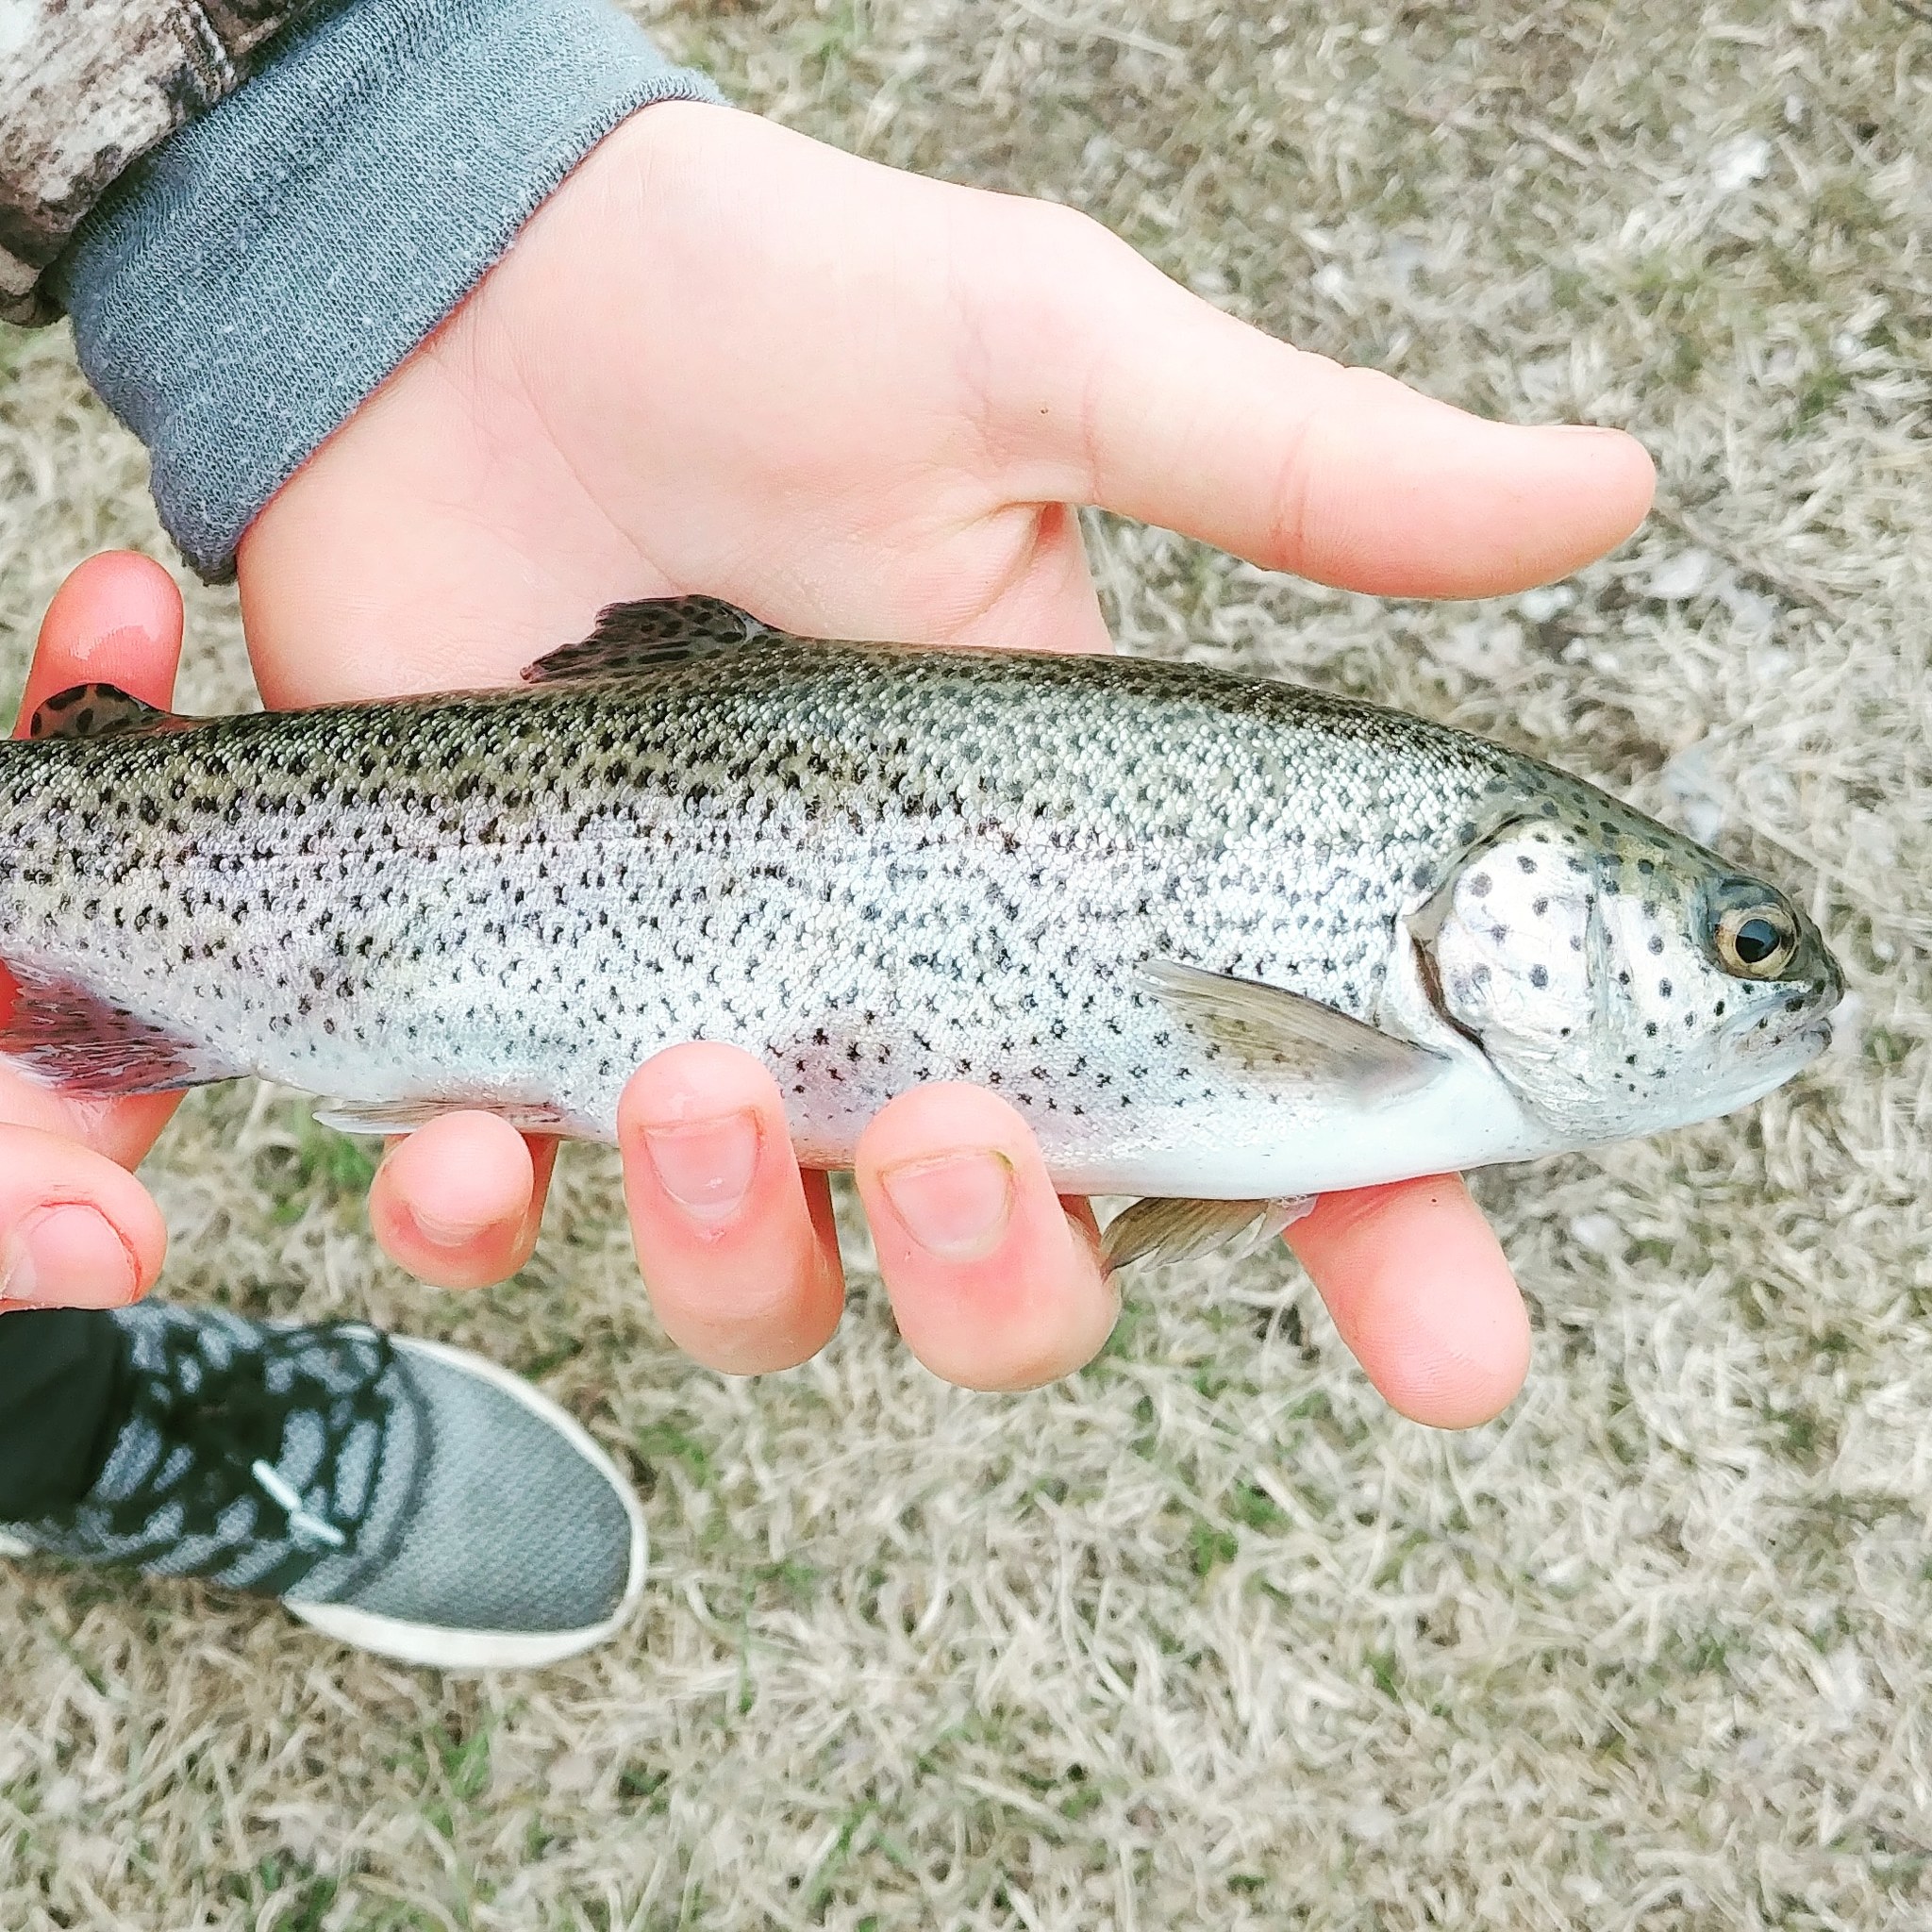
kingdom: Animalia
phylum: Chordata
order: Salmoniformes
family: Salmonidae
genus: Oncorhynchus
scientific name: Oncorhynchus mykiss
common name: Rainbow trout
